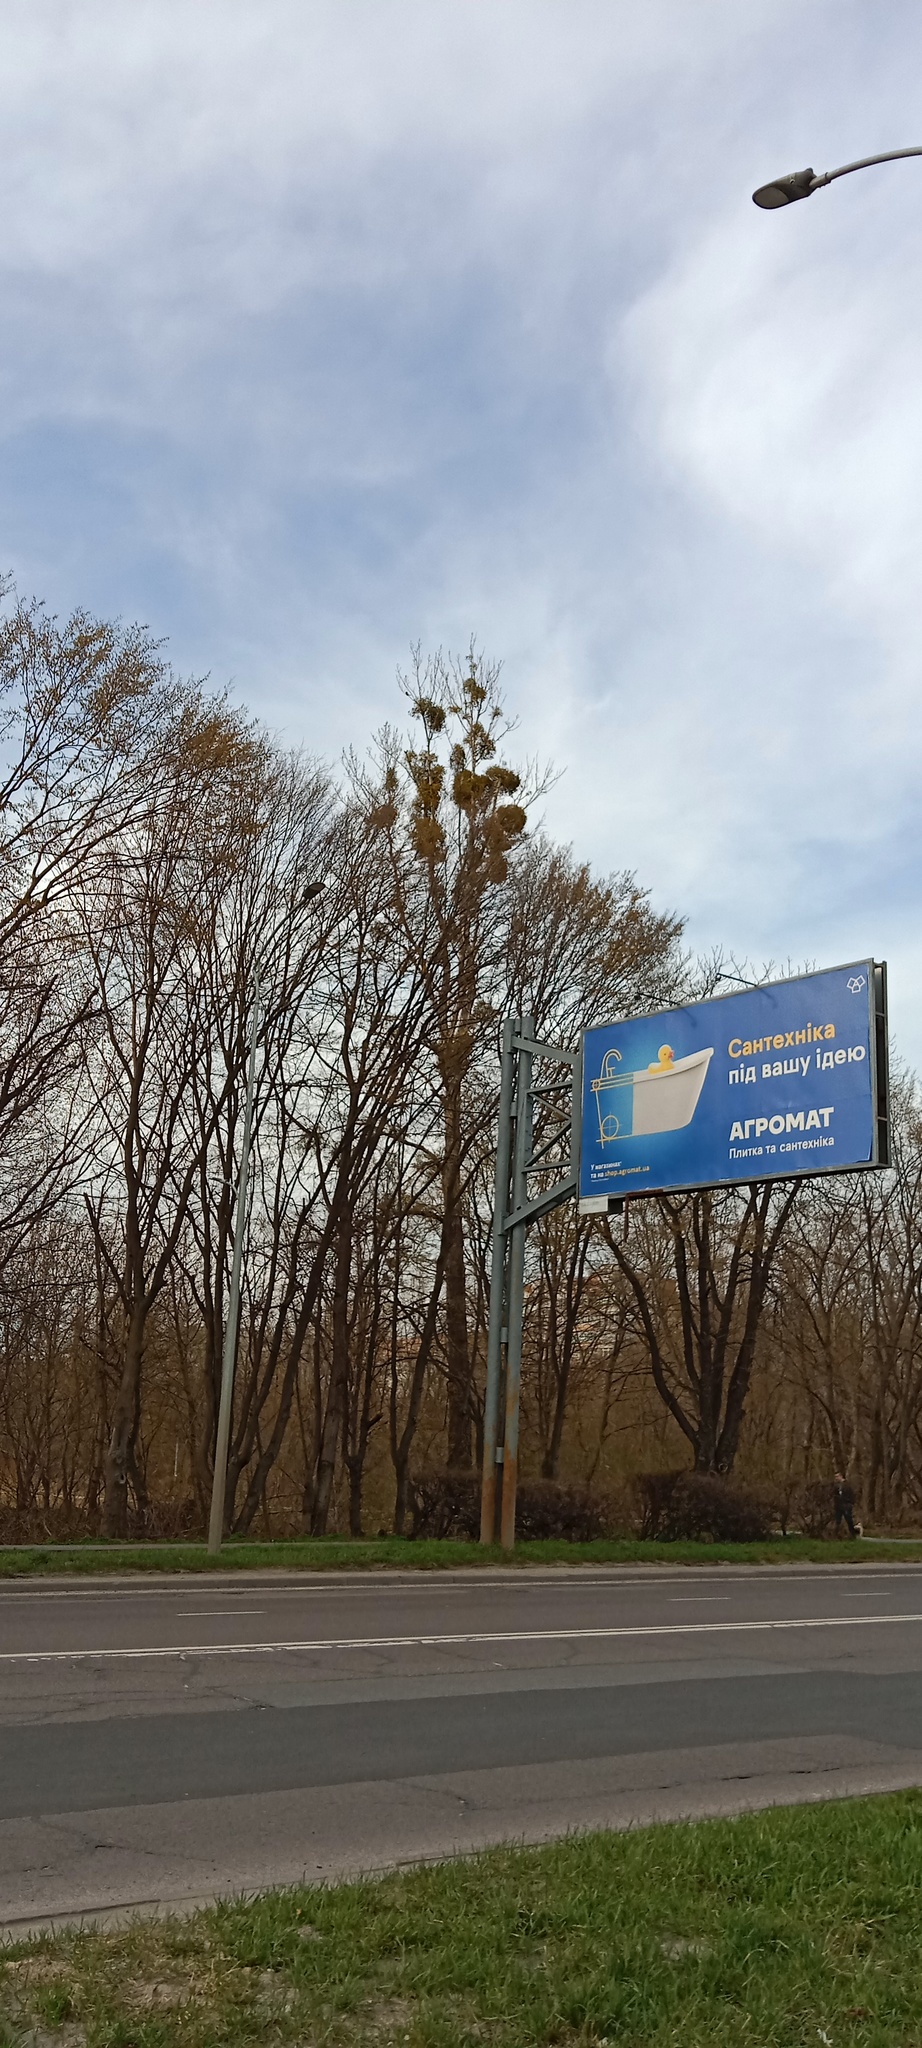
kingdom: Plantae
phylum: Tracheophyta
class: Magnoliopsida
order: Santalales
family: Viscaceae
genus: Viscum
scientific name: Viscum album
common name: Mistletoe
